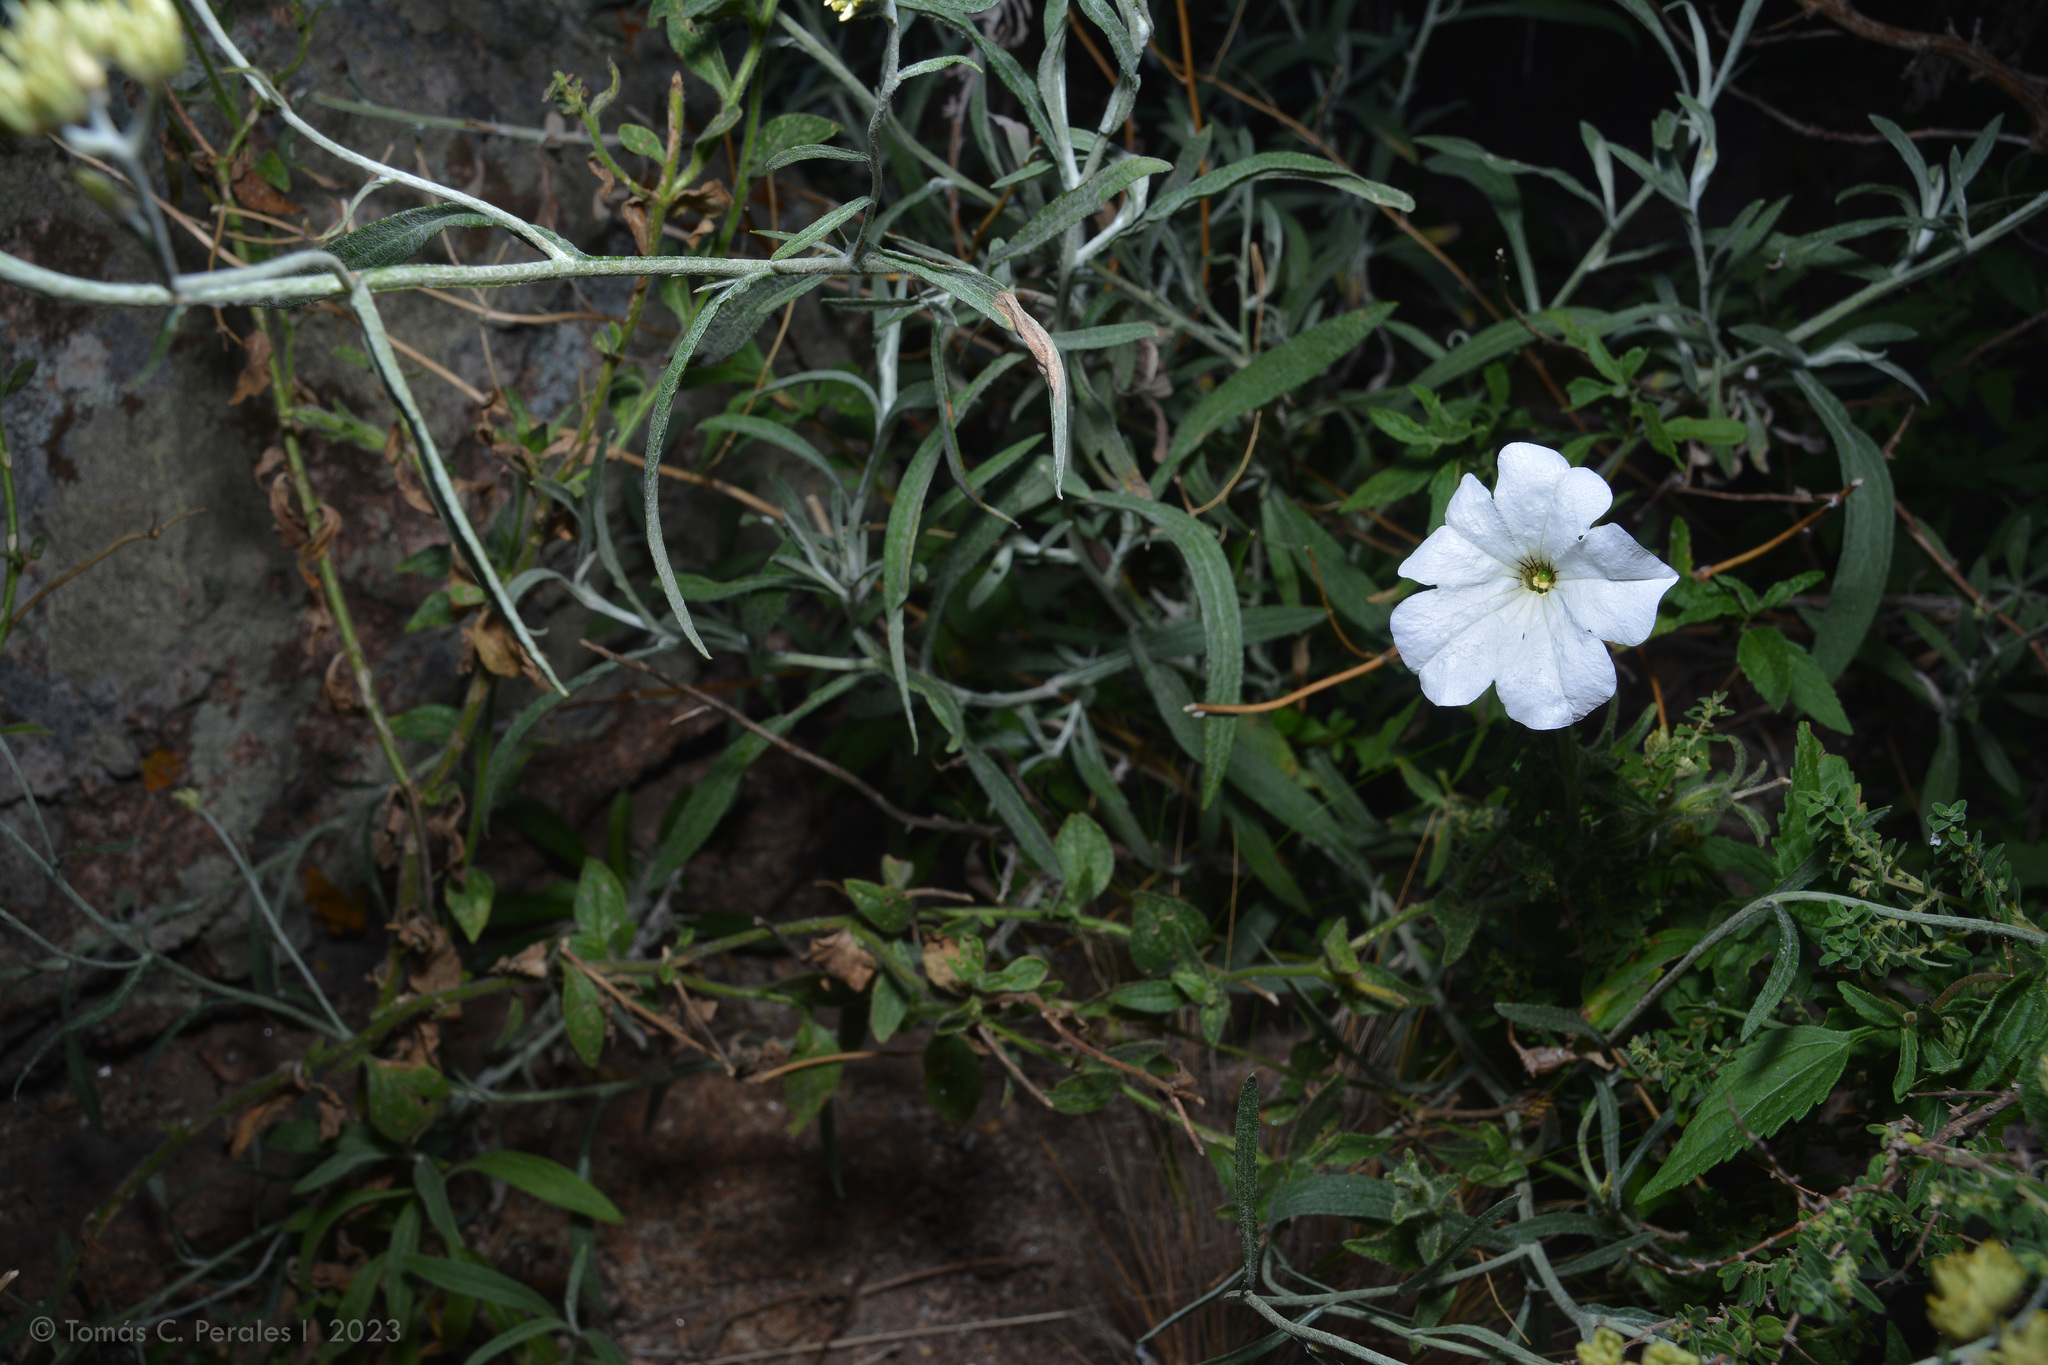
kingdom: Plantae
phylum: Tracheophyta
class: Magnoliopsida
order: Solanales
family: Solanaceae
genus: Petunia
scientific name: Petunia axillaris
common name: Large white petunia
